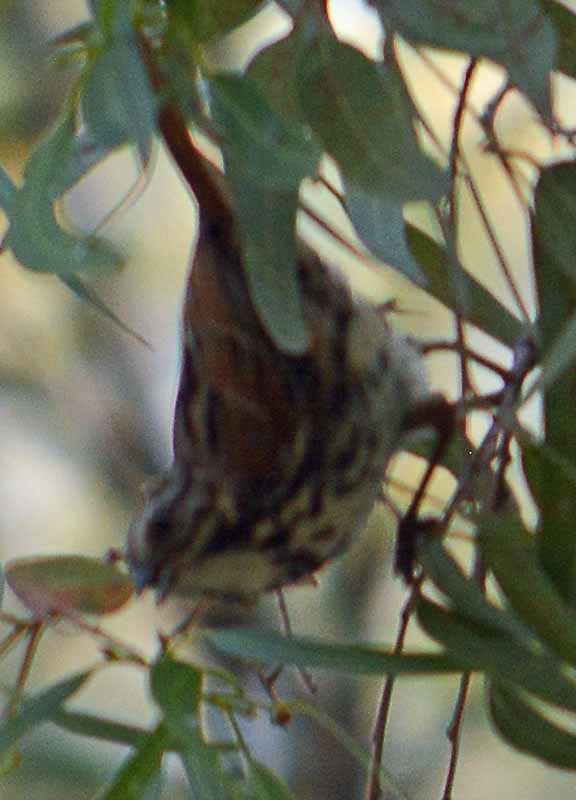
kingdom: Animalia
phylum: Chordata
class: Aves
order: Passeriformes
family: Passerellidae
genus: Melospiza
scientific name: Melospiza melodia
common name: Song sparrow
